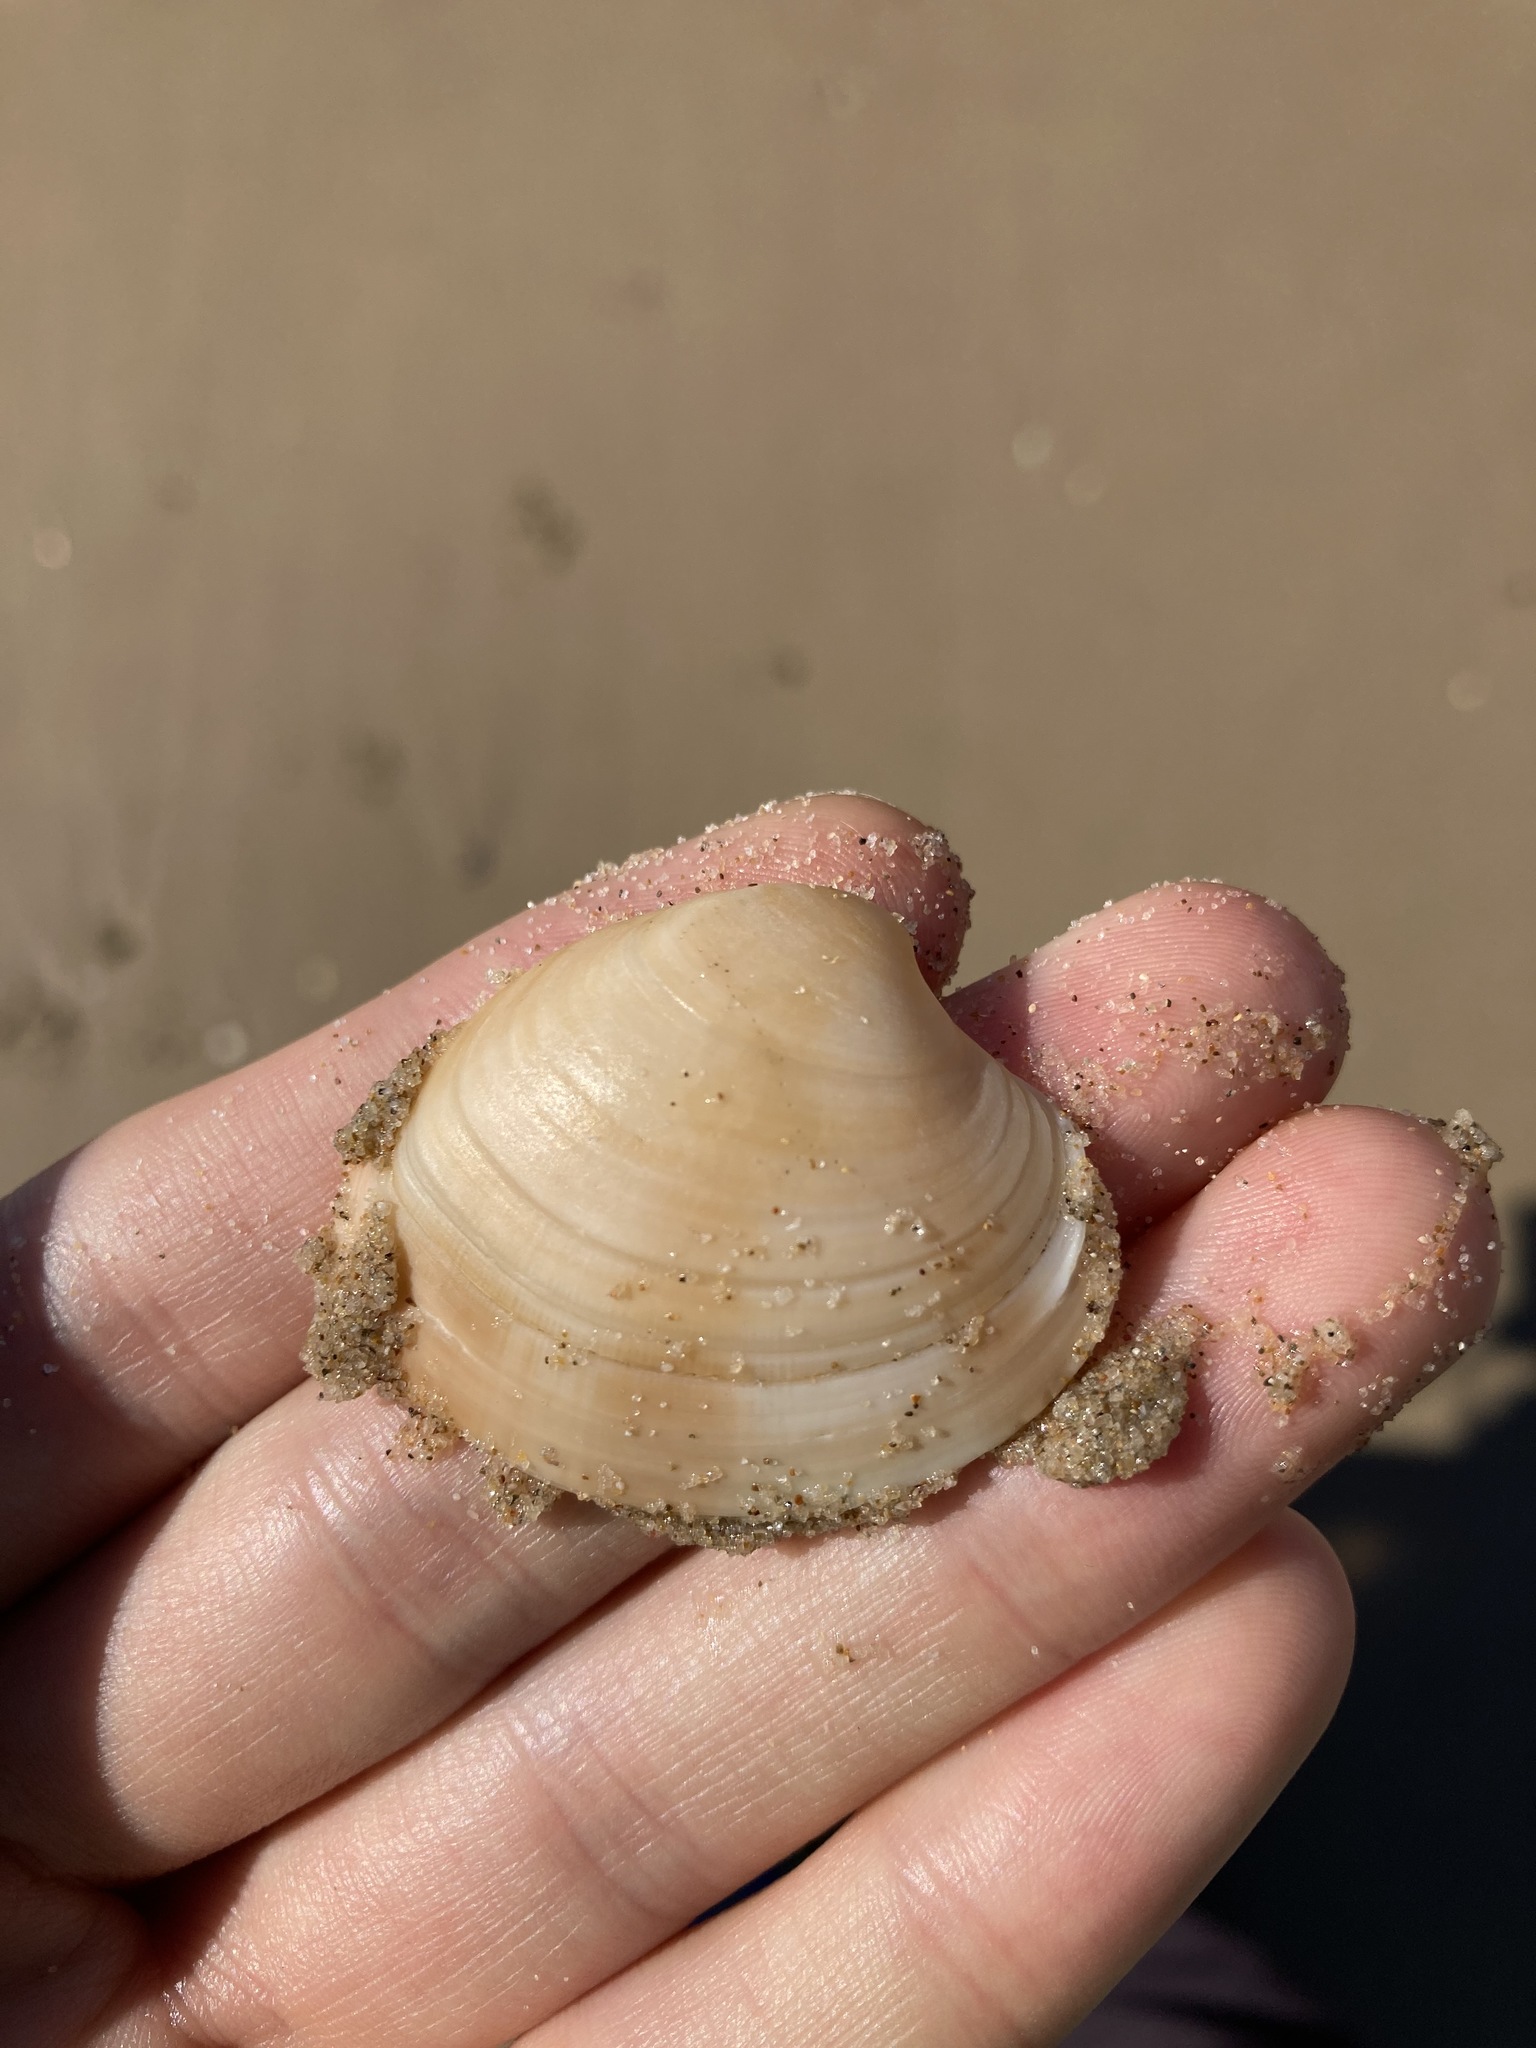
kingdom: Animalia
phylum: Mollusca
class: Bivalvia
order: Venerida
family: Veneridae
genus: Bassina
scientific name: Bassina pachyphylla
